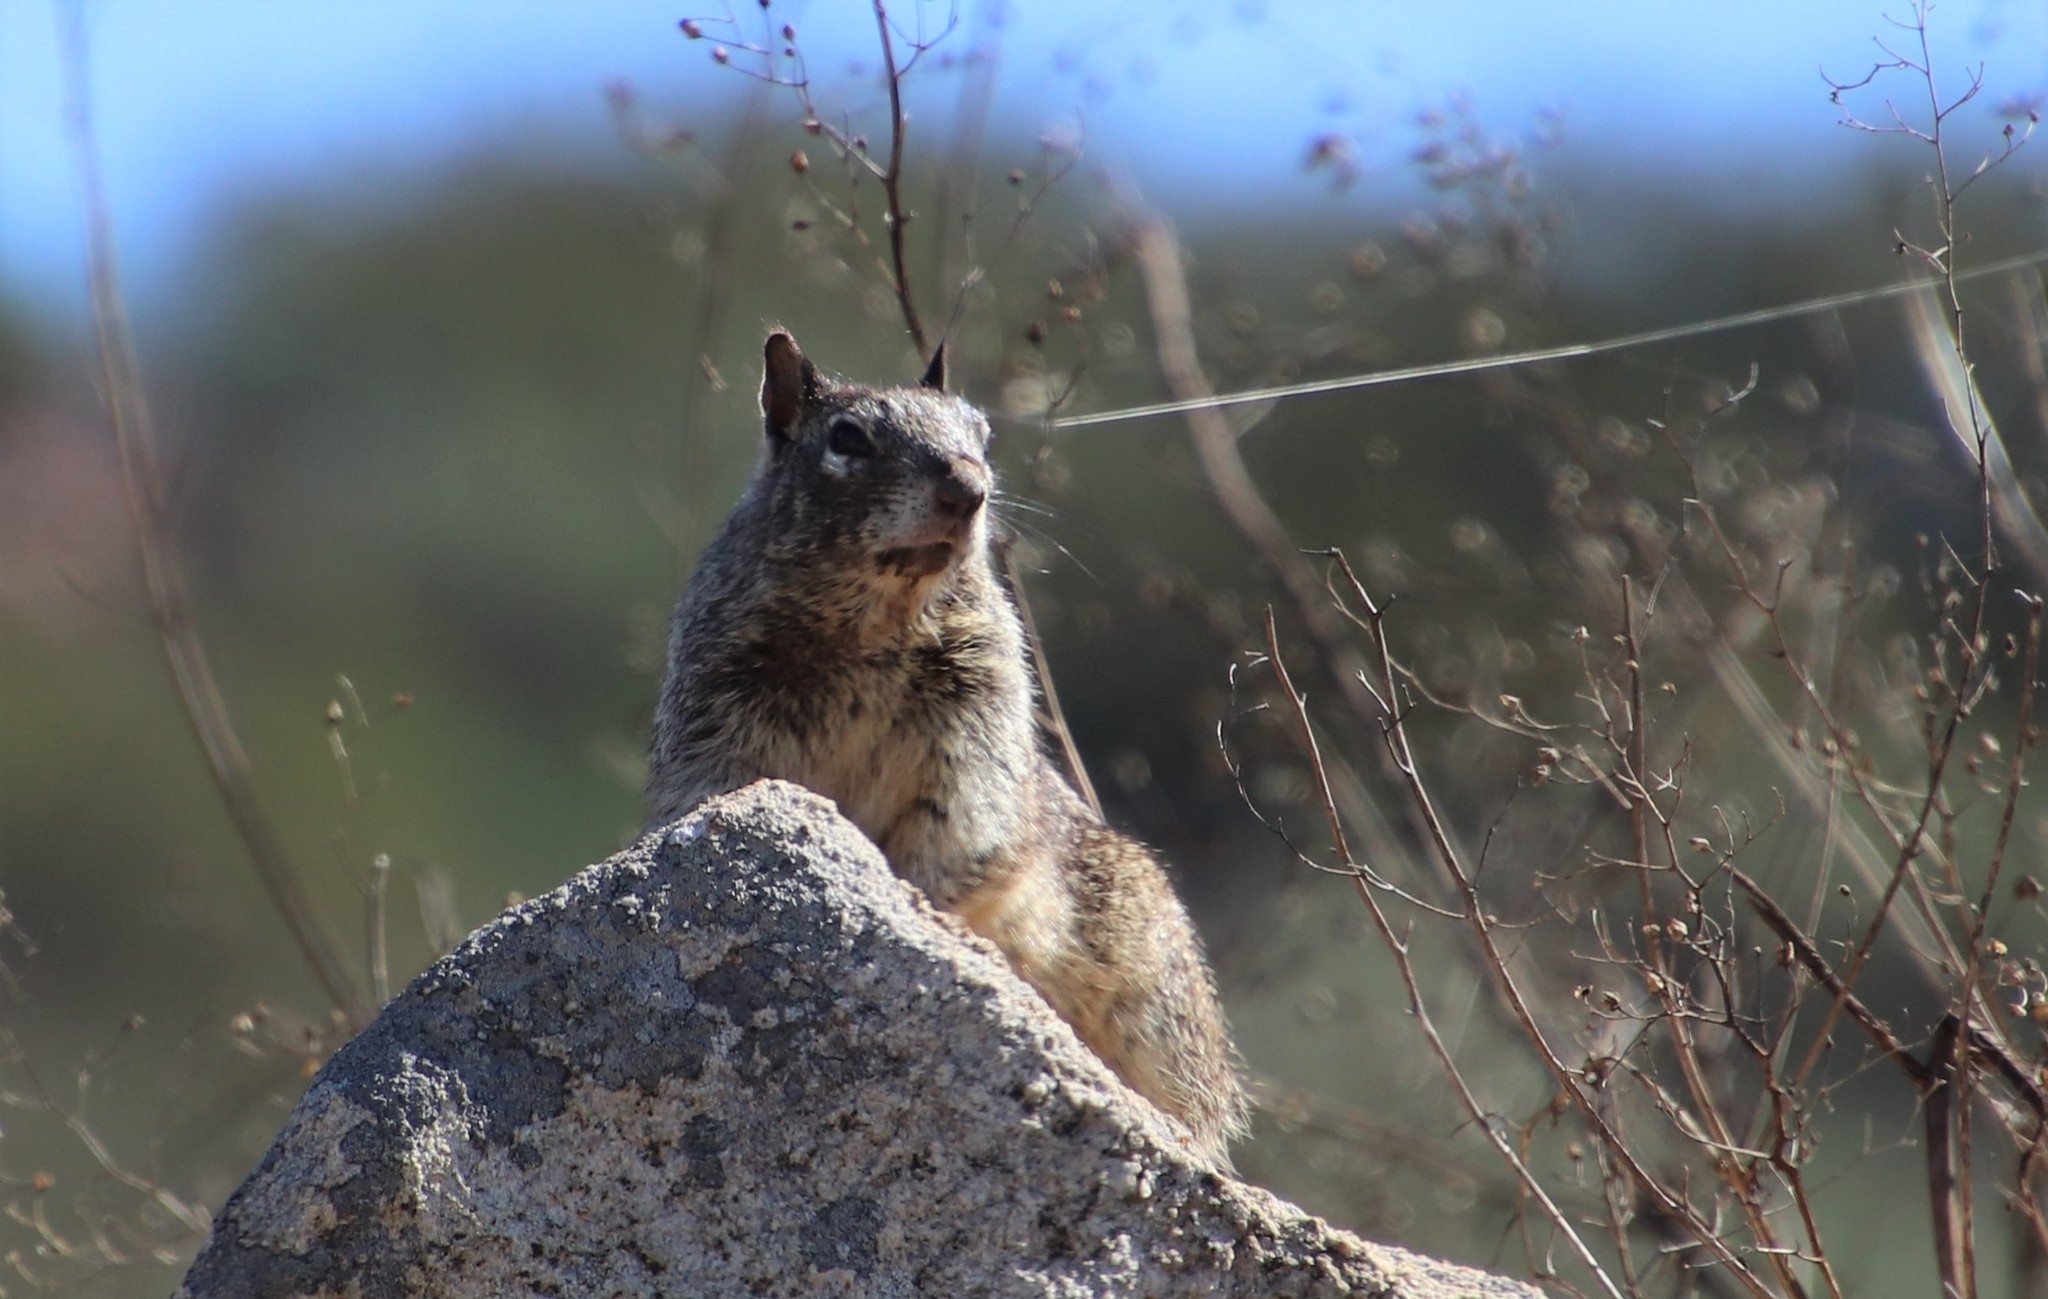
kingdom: Animalia
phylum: Chordata
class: Mammalia
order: Rodentia
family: Sciuridae
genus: Otospermophilus
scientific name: Otospermophilus beecheyi
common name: California ground squirrel
